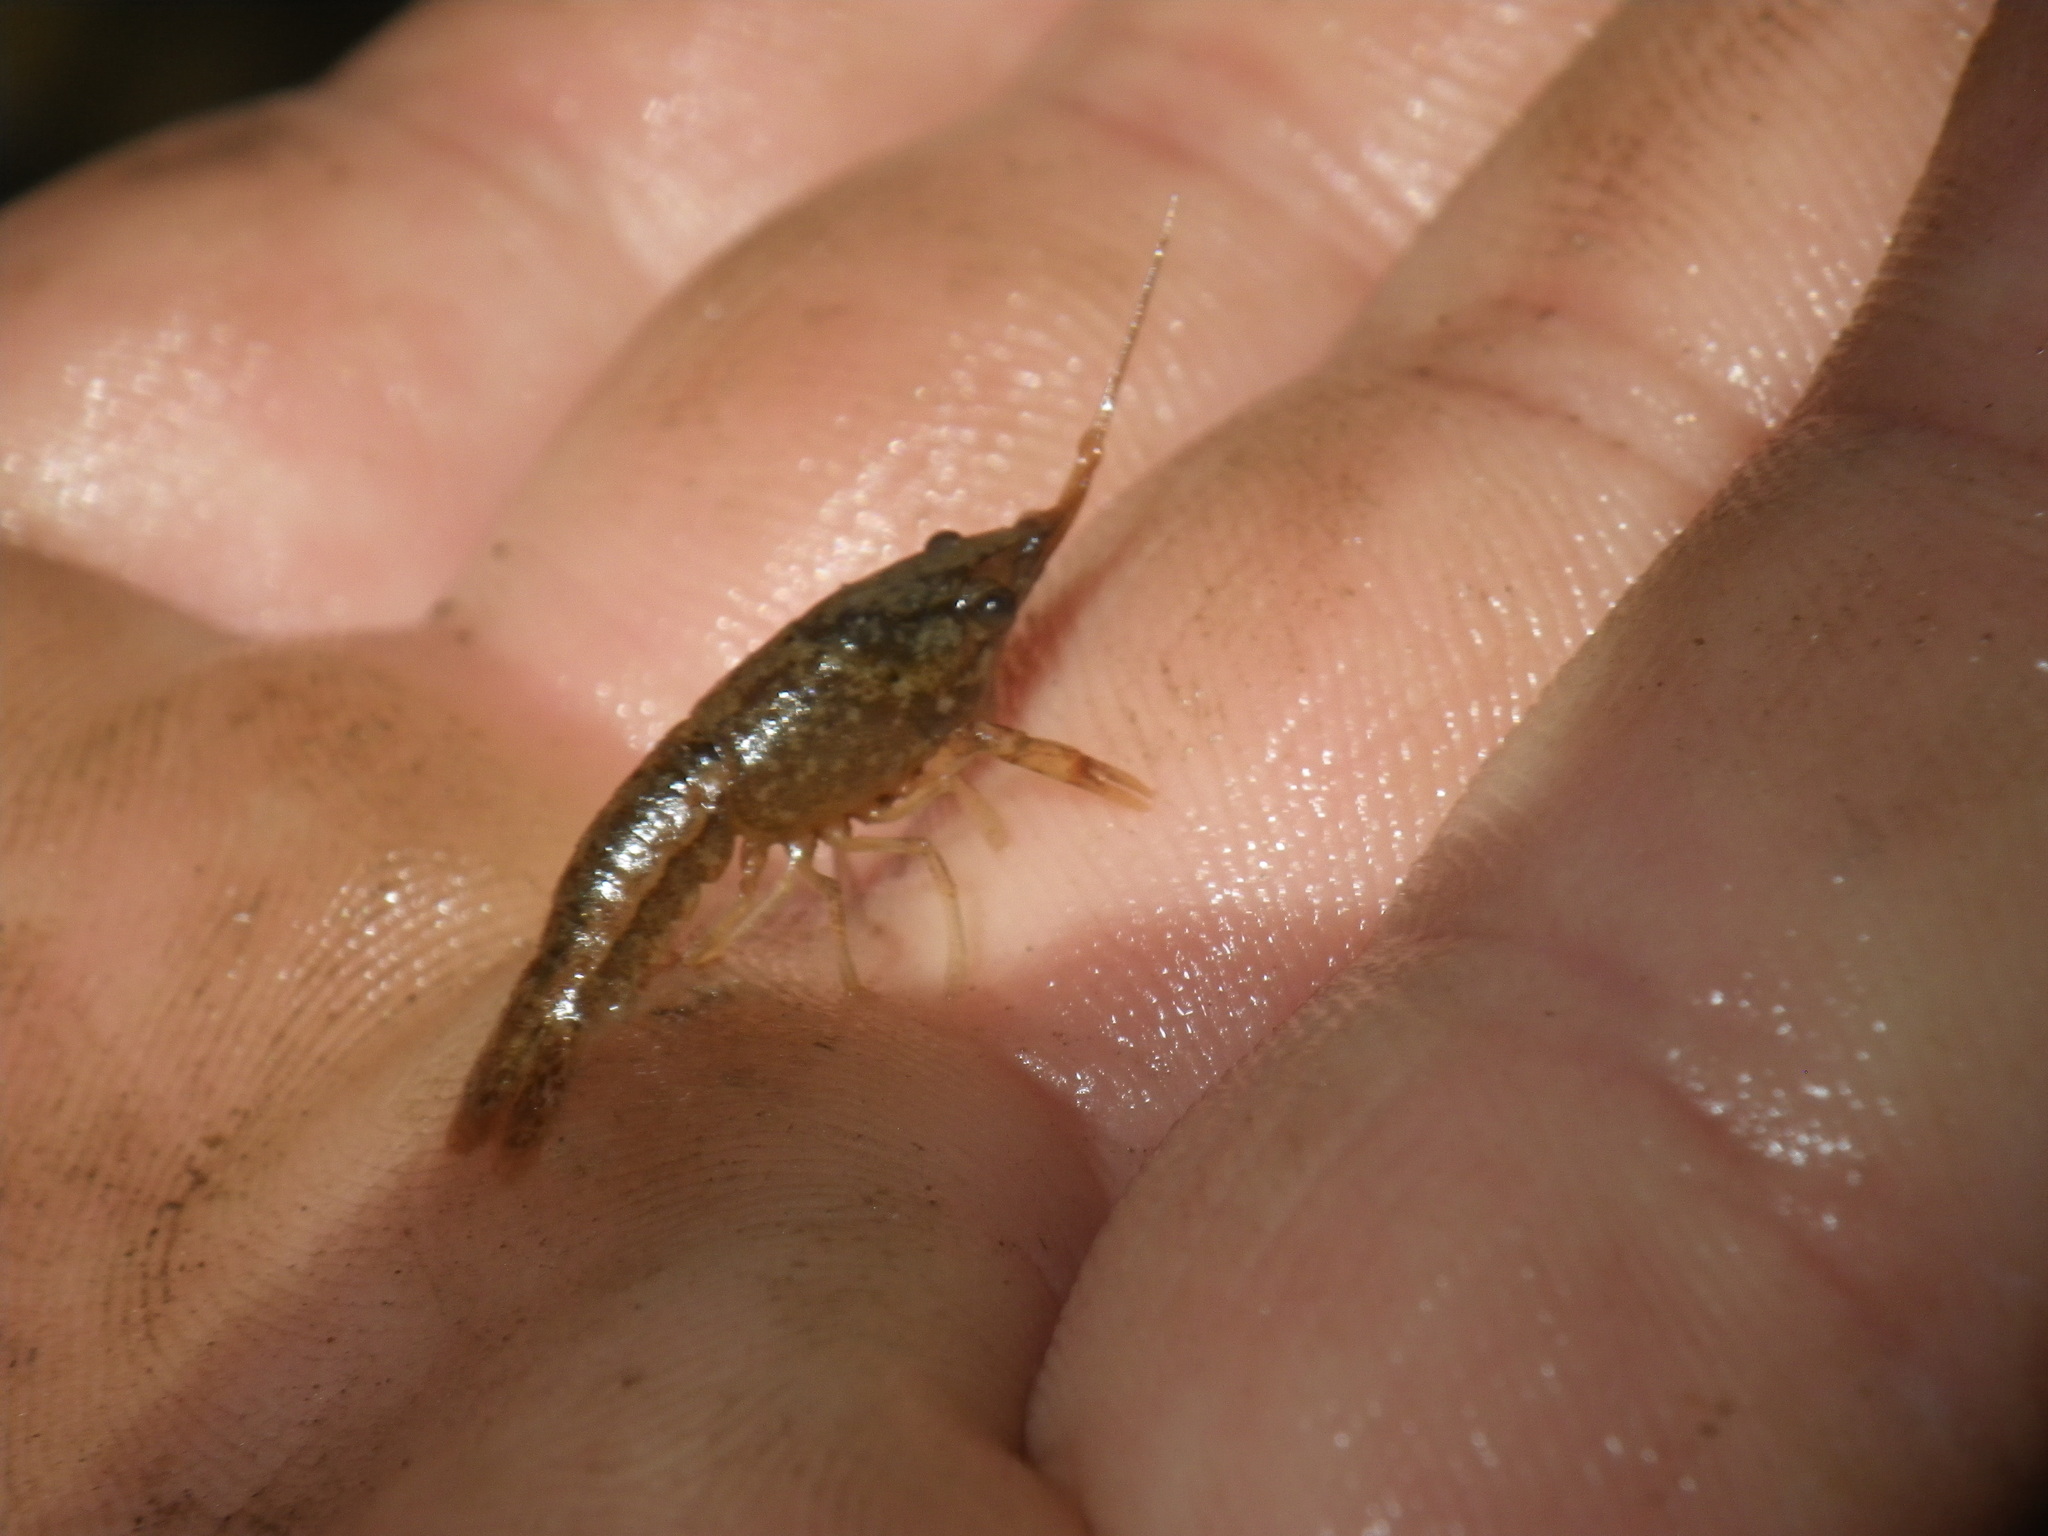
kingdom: Animalia
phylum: Arthropoda
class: Malacostraca
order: Decapoda
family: Cambaridae
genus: Procambarus
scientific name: Procambarus clarkii
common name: Red swamp crayfish
